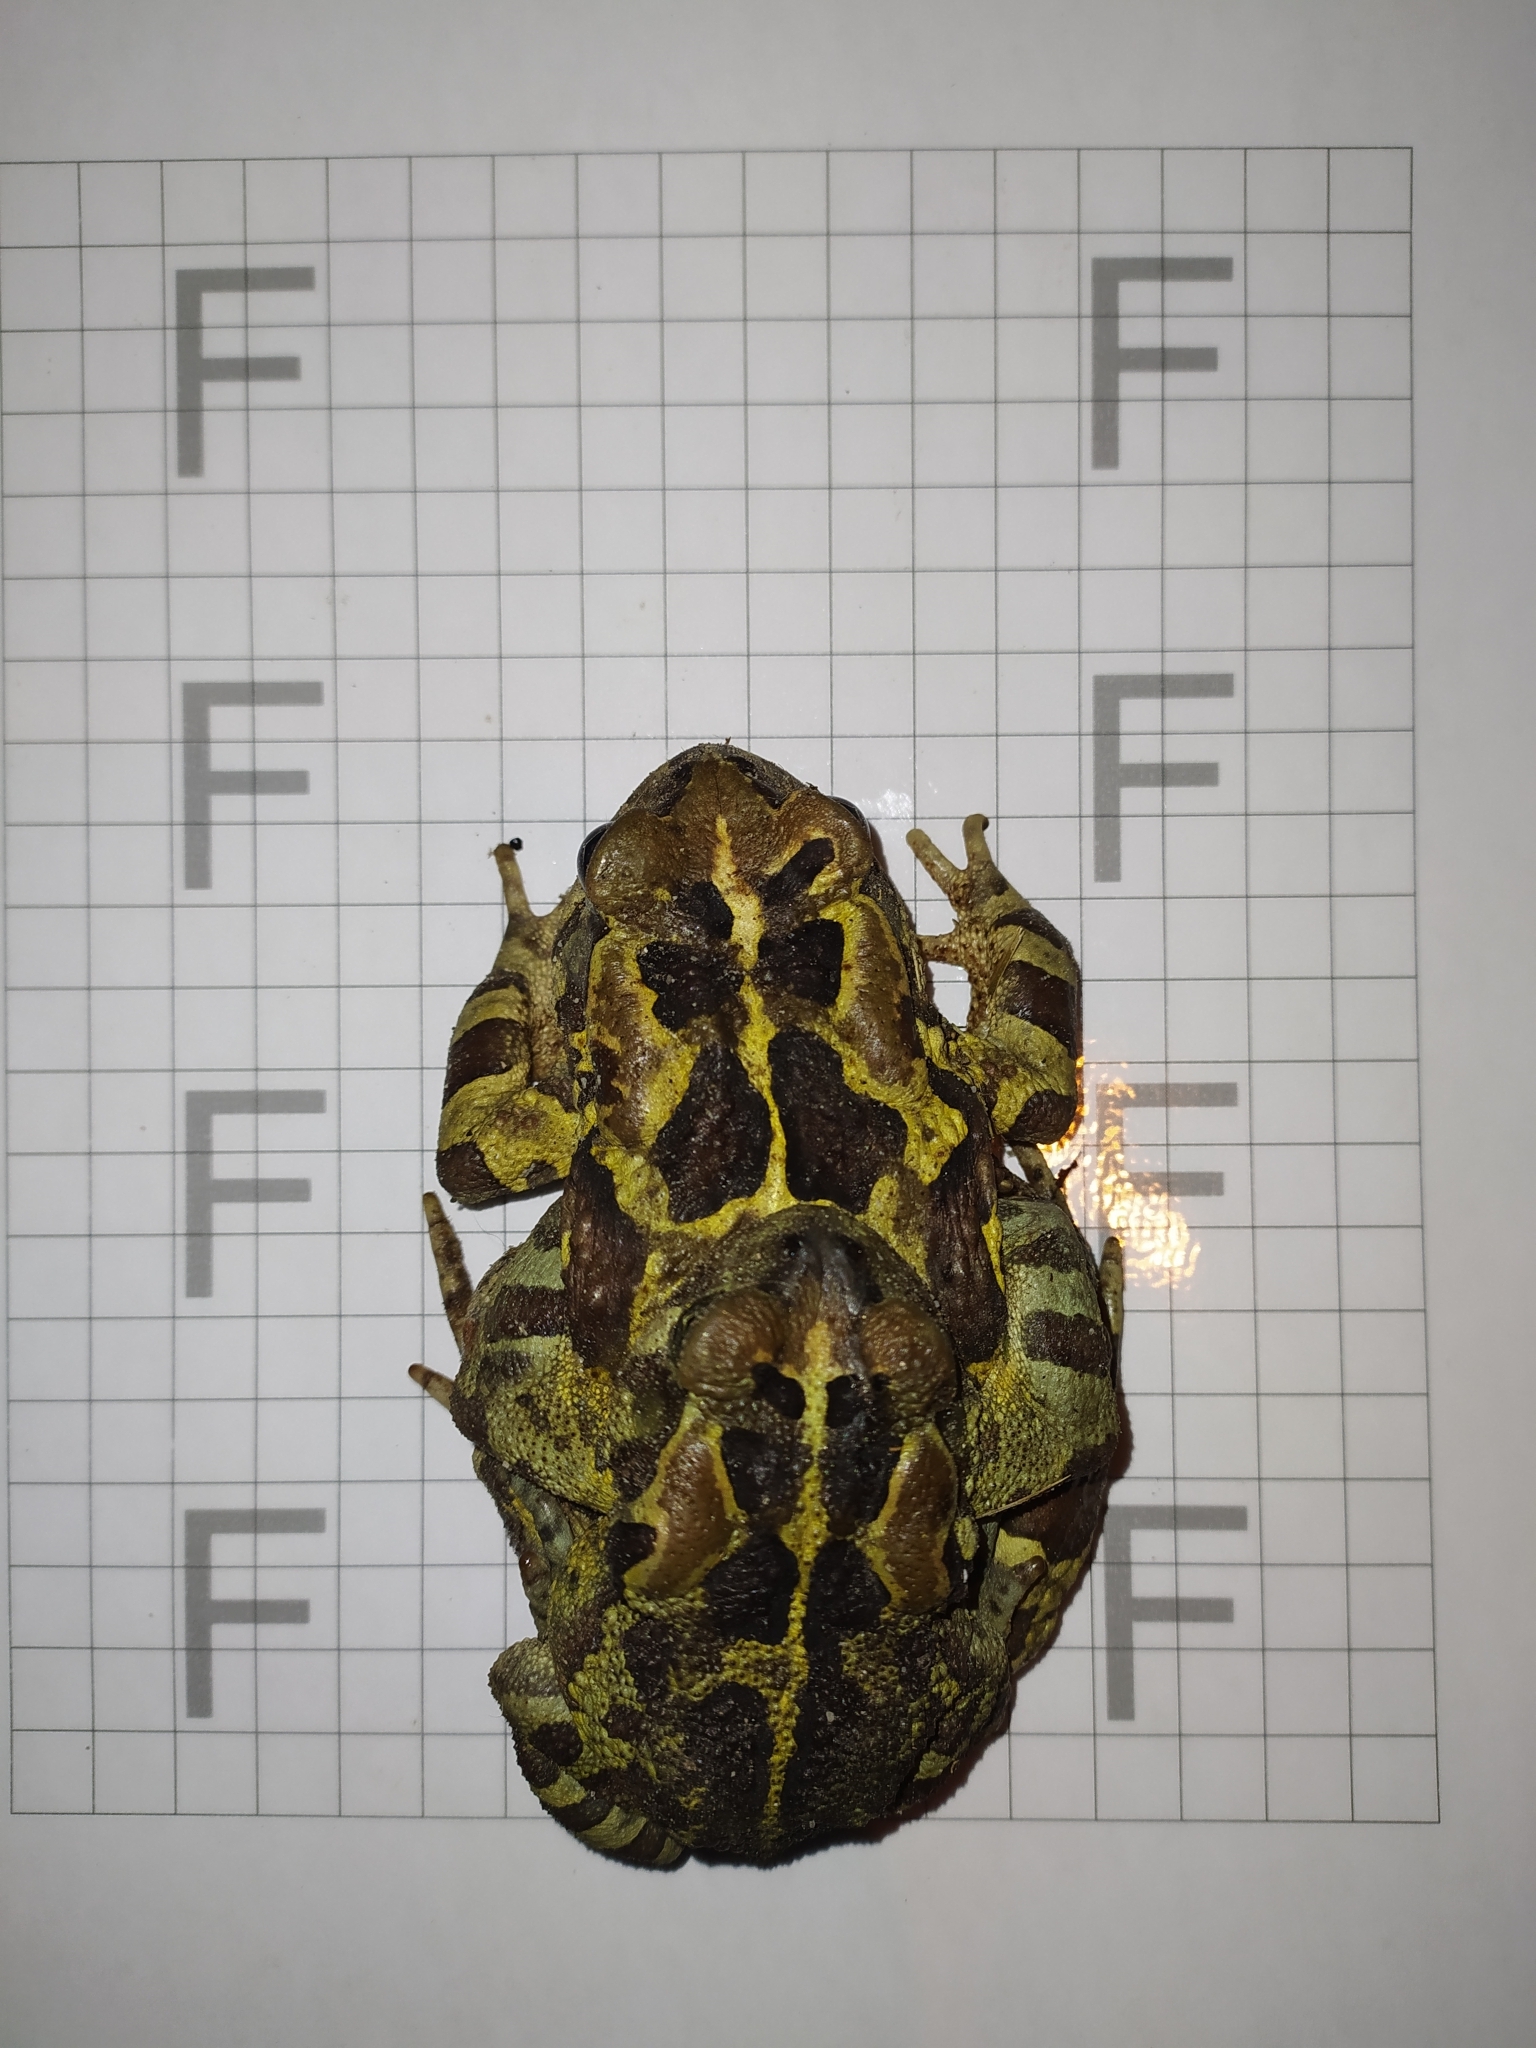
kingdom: Animalia
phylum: Chordata
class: Amphibia
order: Anura
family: Bufonidae
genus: Sclerophrys
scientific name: Sclerophrys pantherina
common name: Panther toad
